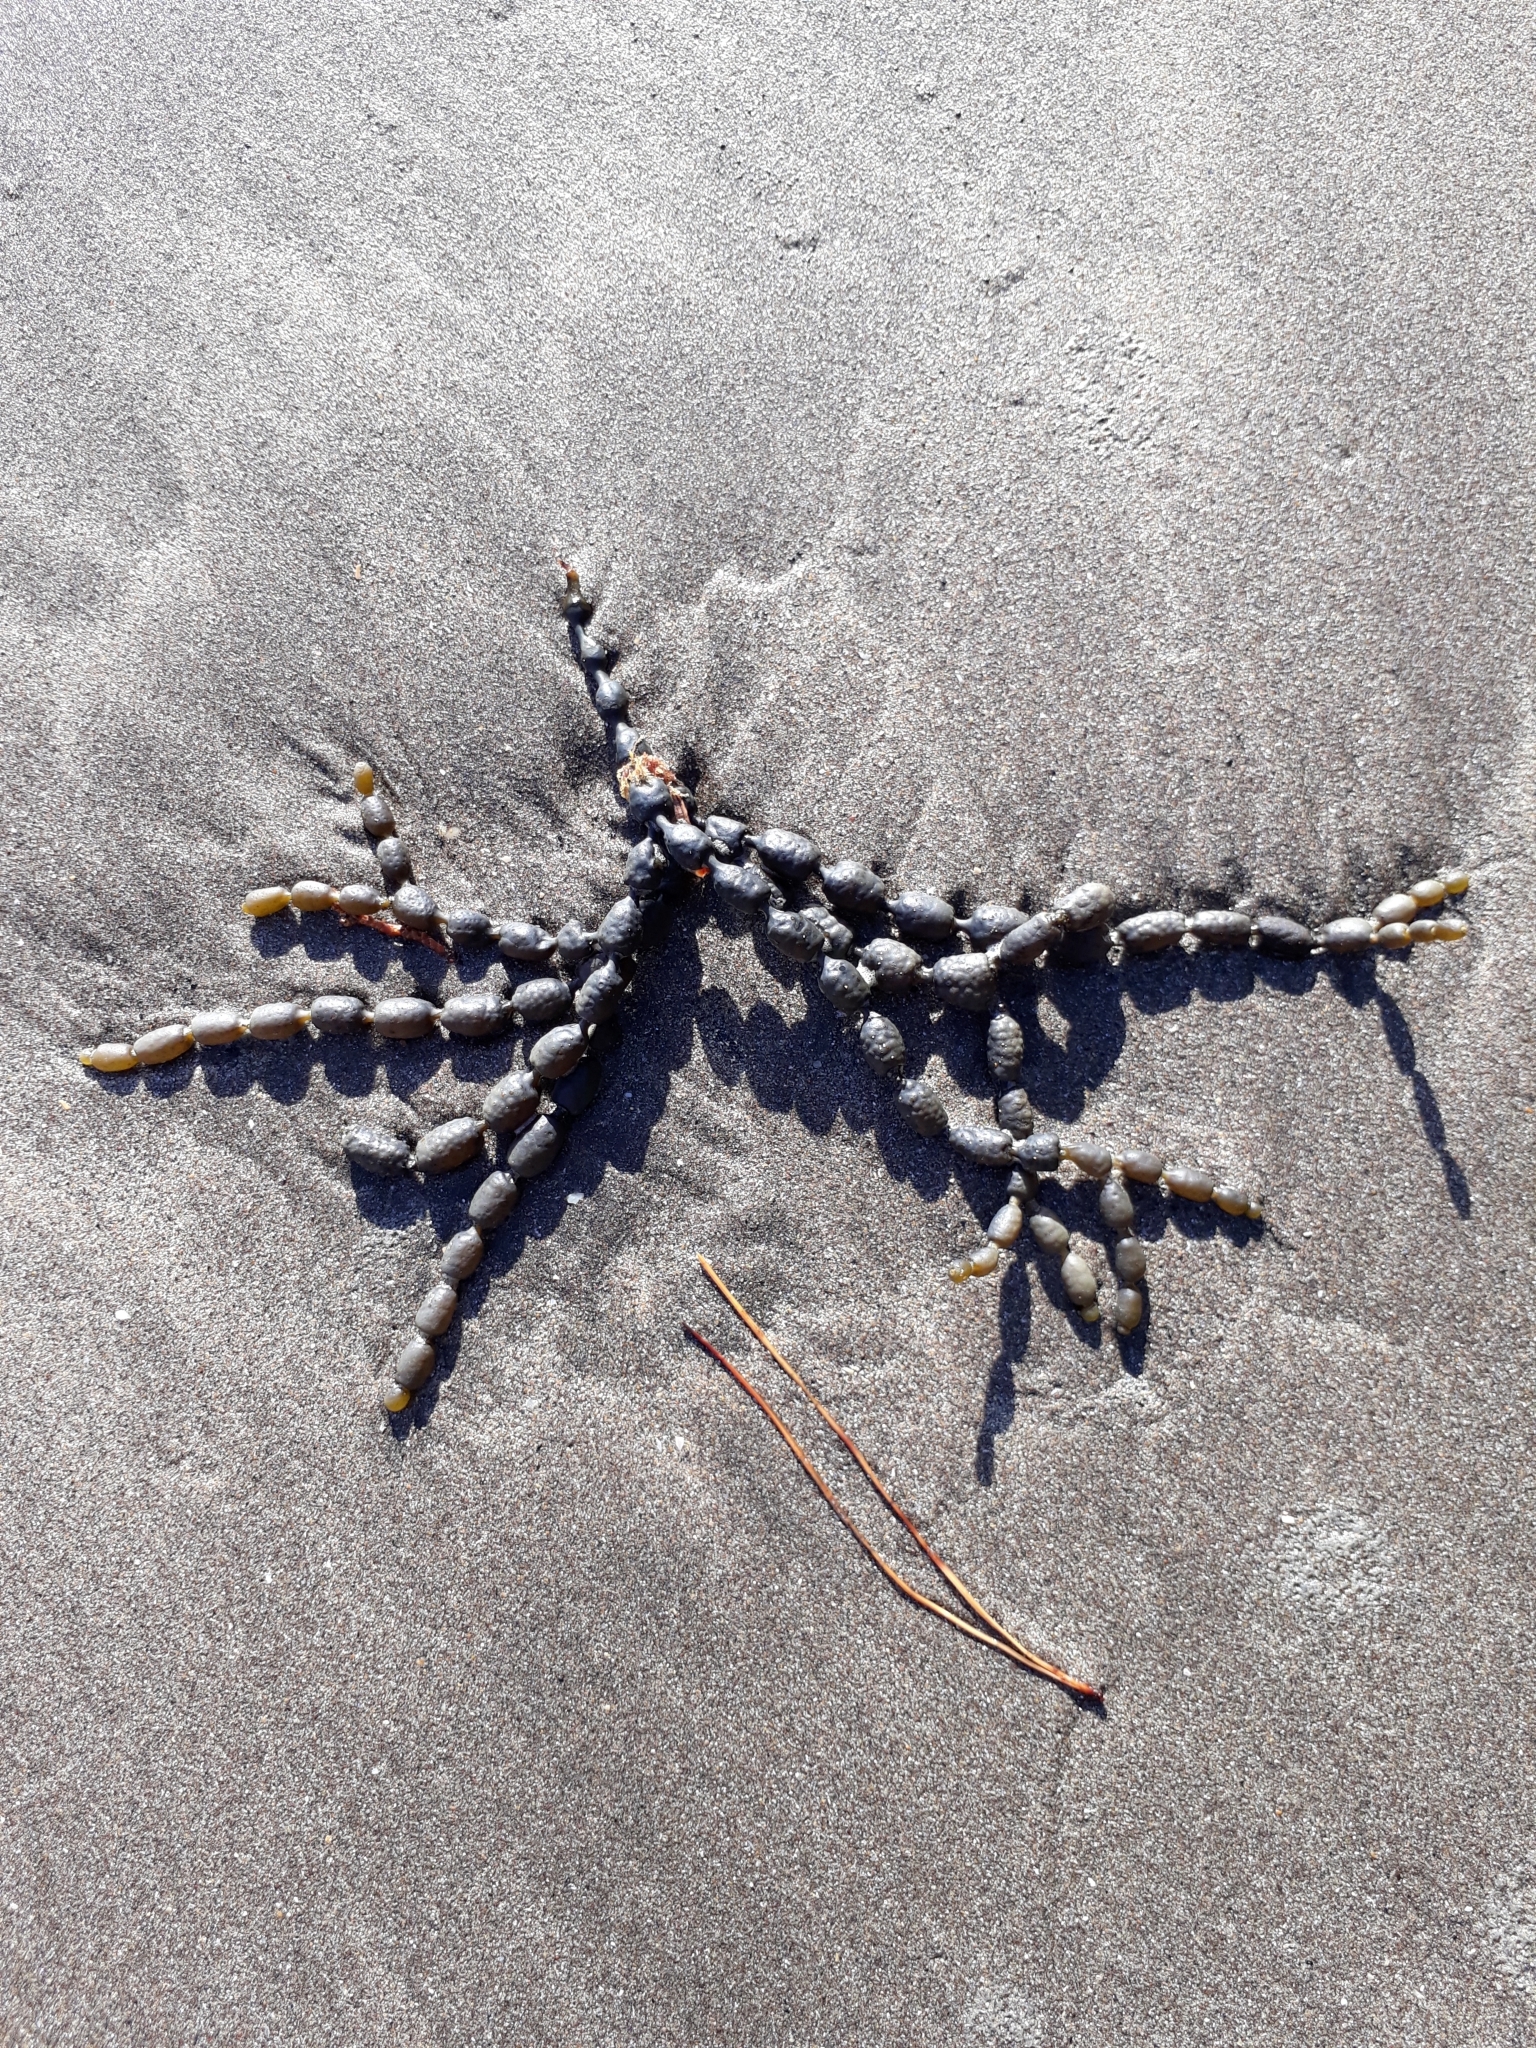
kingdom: Chromista
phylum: Ochrophyta
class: Phaeophyceae
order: Fucales
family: Hormosiraceae
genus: Hormosira
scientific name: Hormosira banksii
